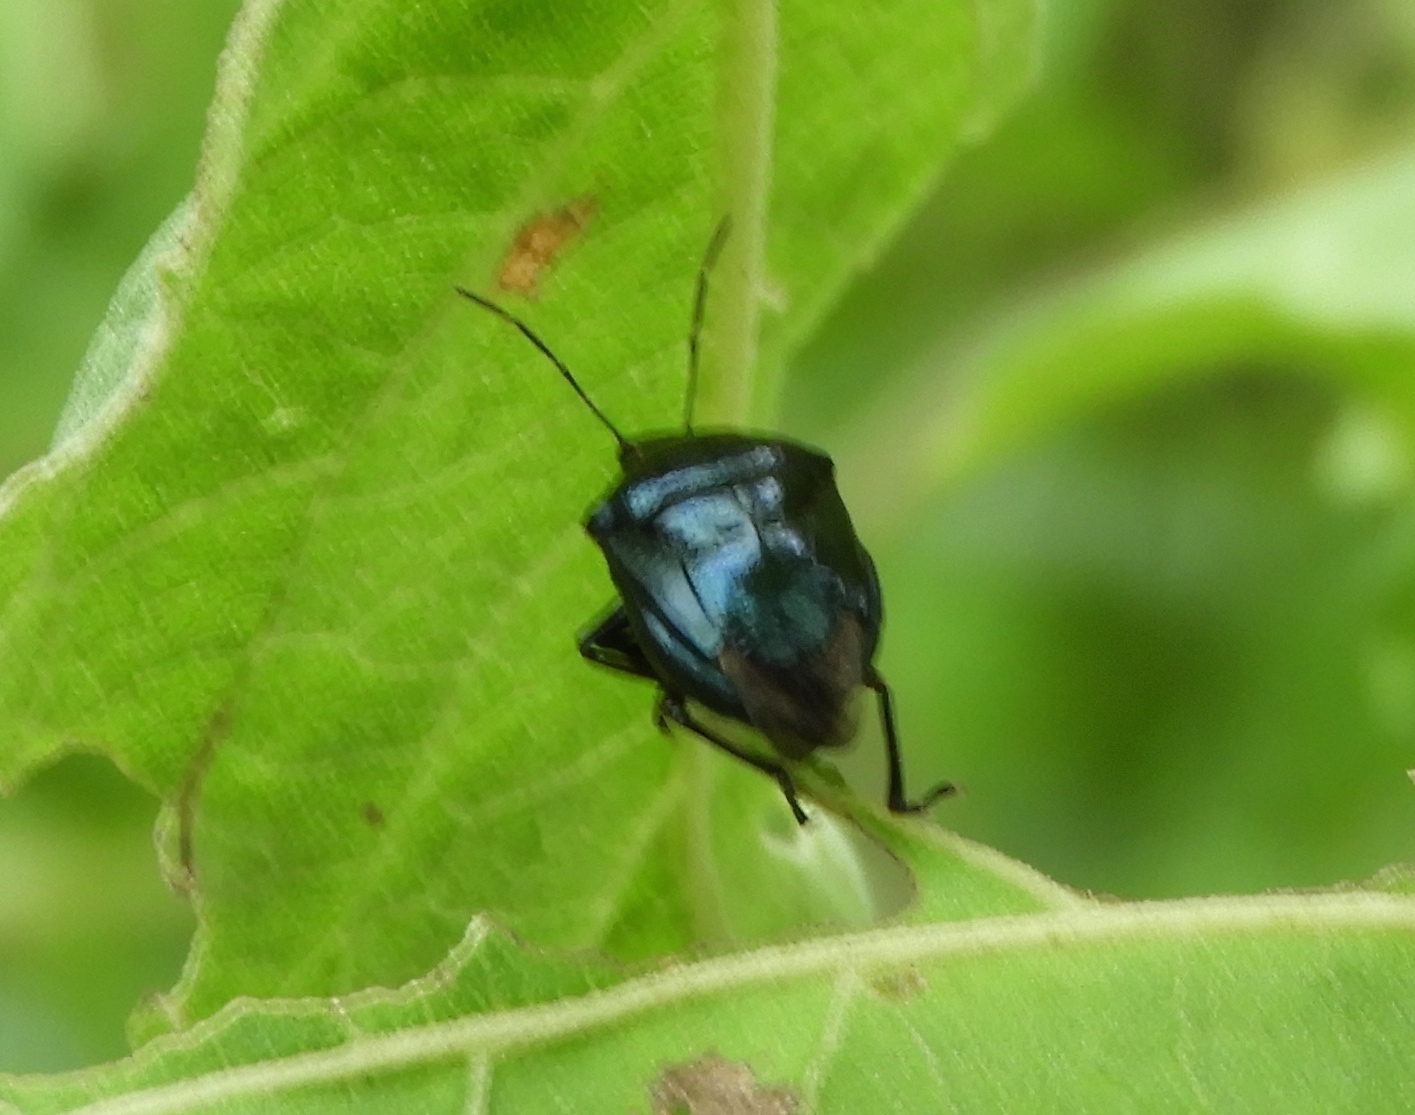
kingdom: Animalia
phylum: Arthropoda
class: Insecta
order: Hemiptera
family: Pentatomidae
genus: Stiretrus
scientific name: Stiretrus
